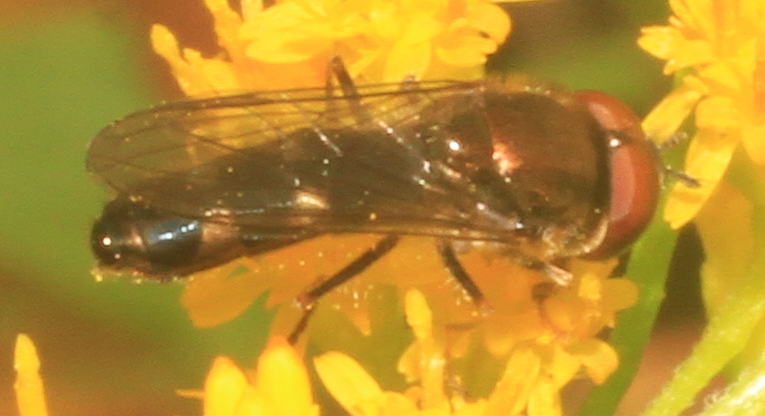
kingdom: Animalia
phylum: Arthropoda
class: Insecta
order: Diptera
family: Syrphidae
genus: Platycheirus
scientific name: Platycheirus
